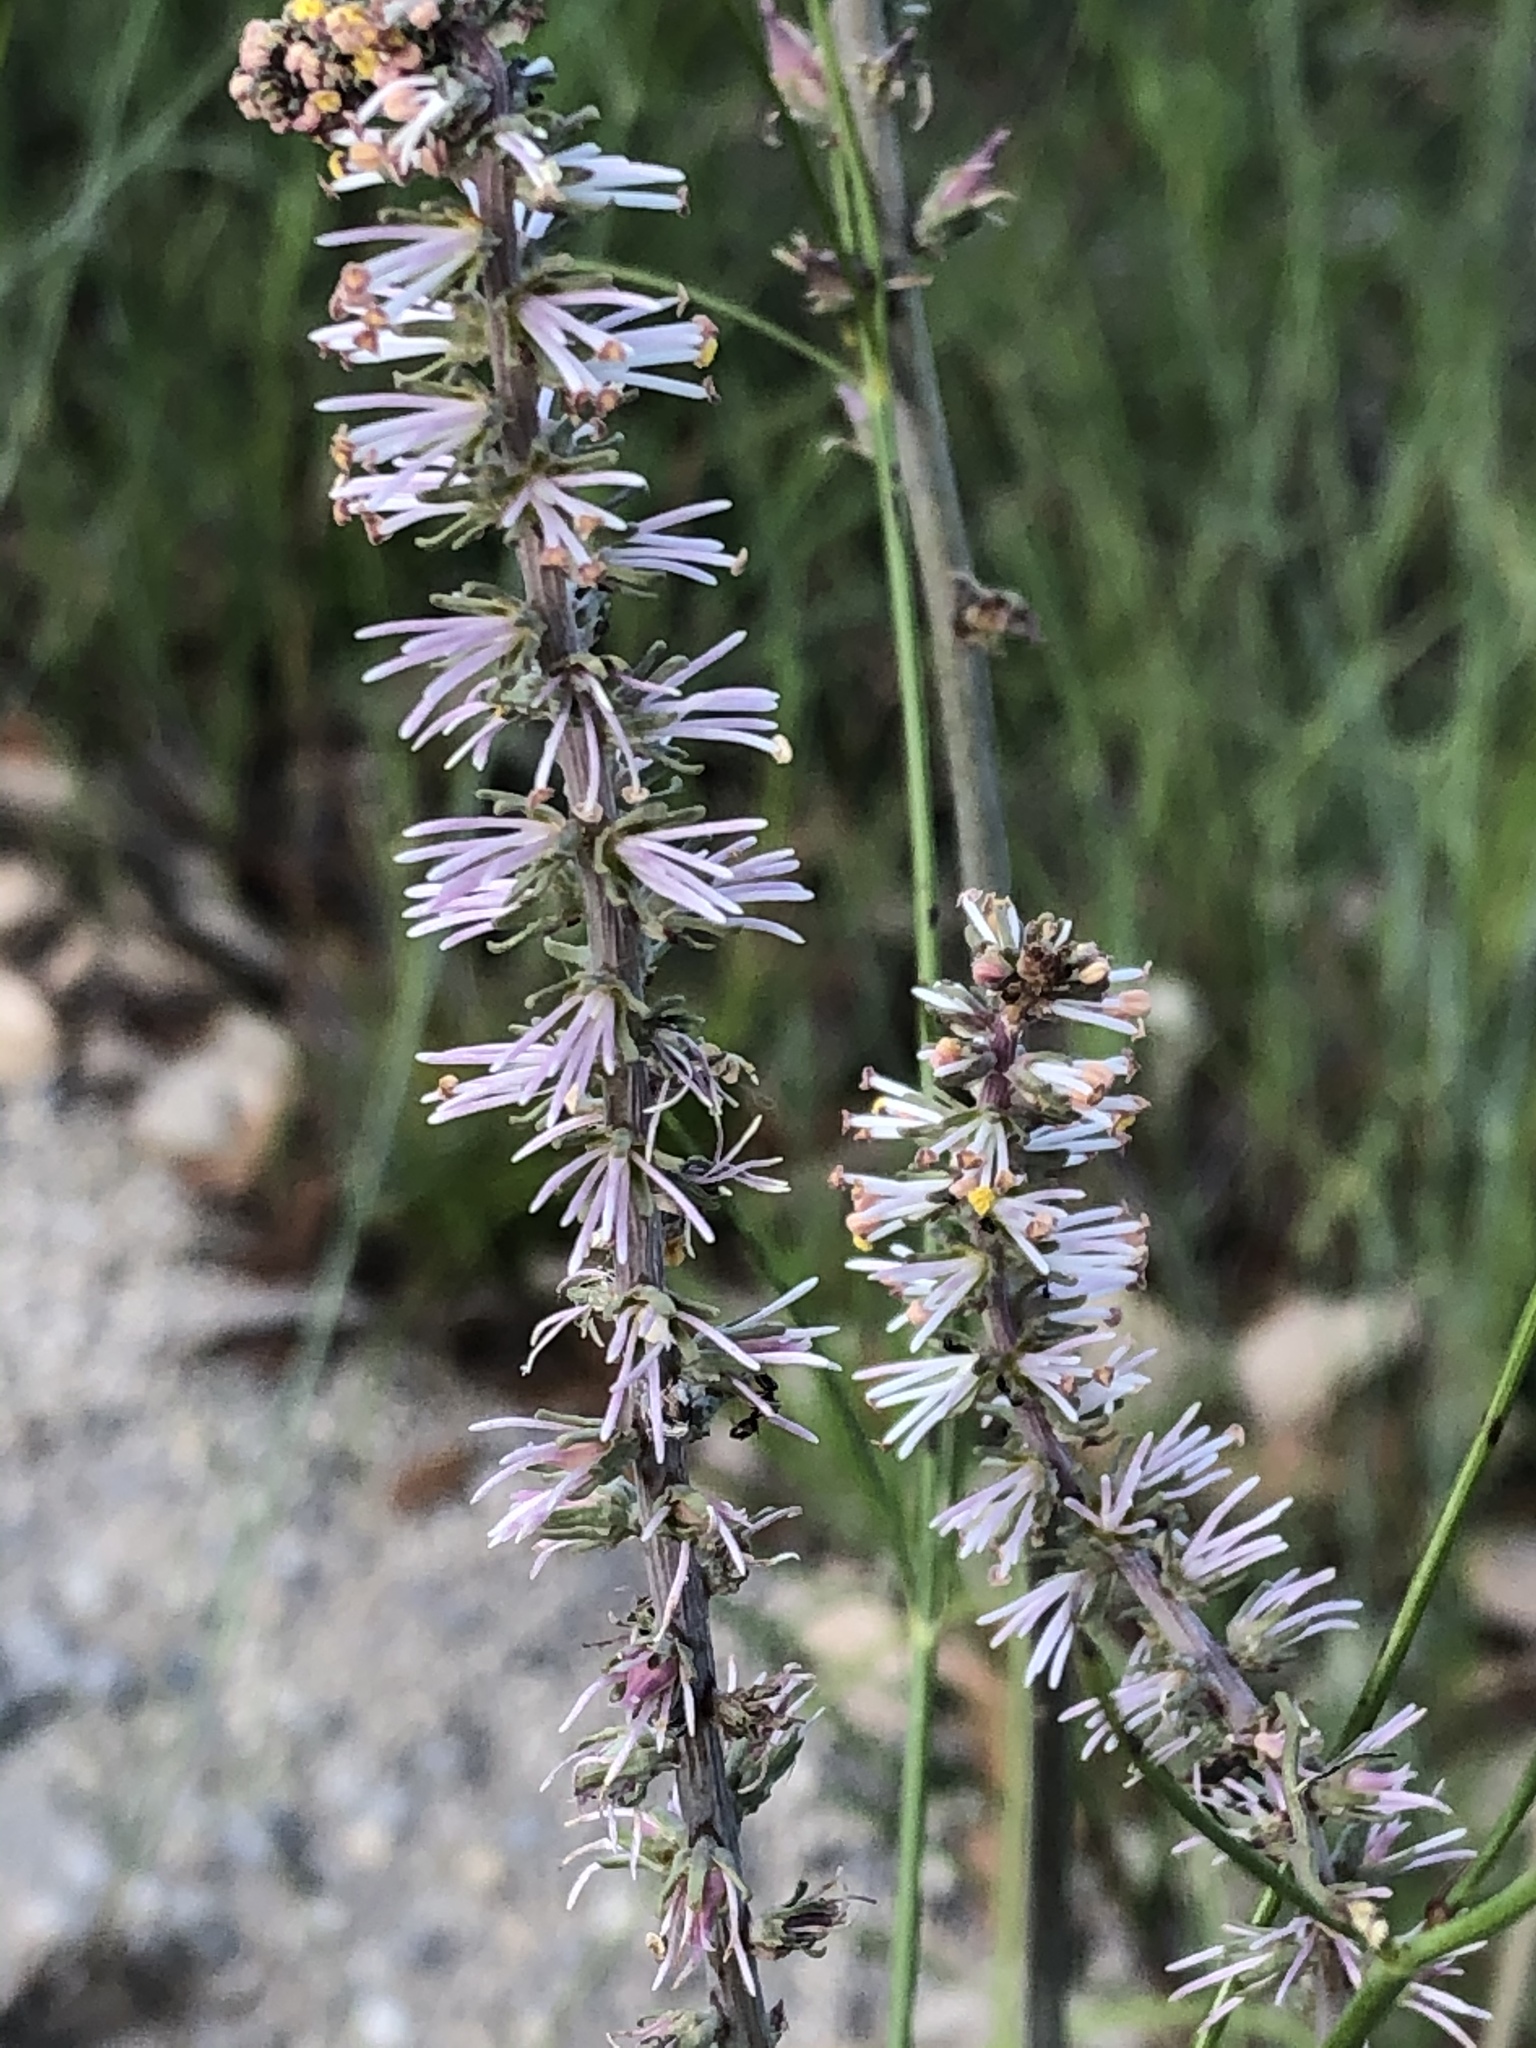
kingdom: Plantae
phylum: Tracheophyta
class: Liliopsida
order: Liliales
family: Melanthiaceae
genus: Schoenocaulon
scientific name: Schoenocaulon texanum
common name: Texas feather-shank
